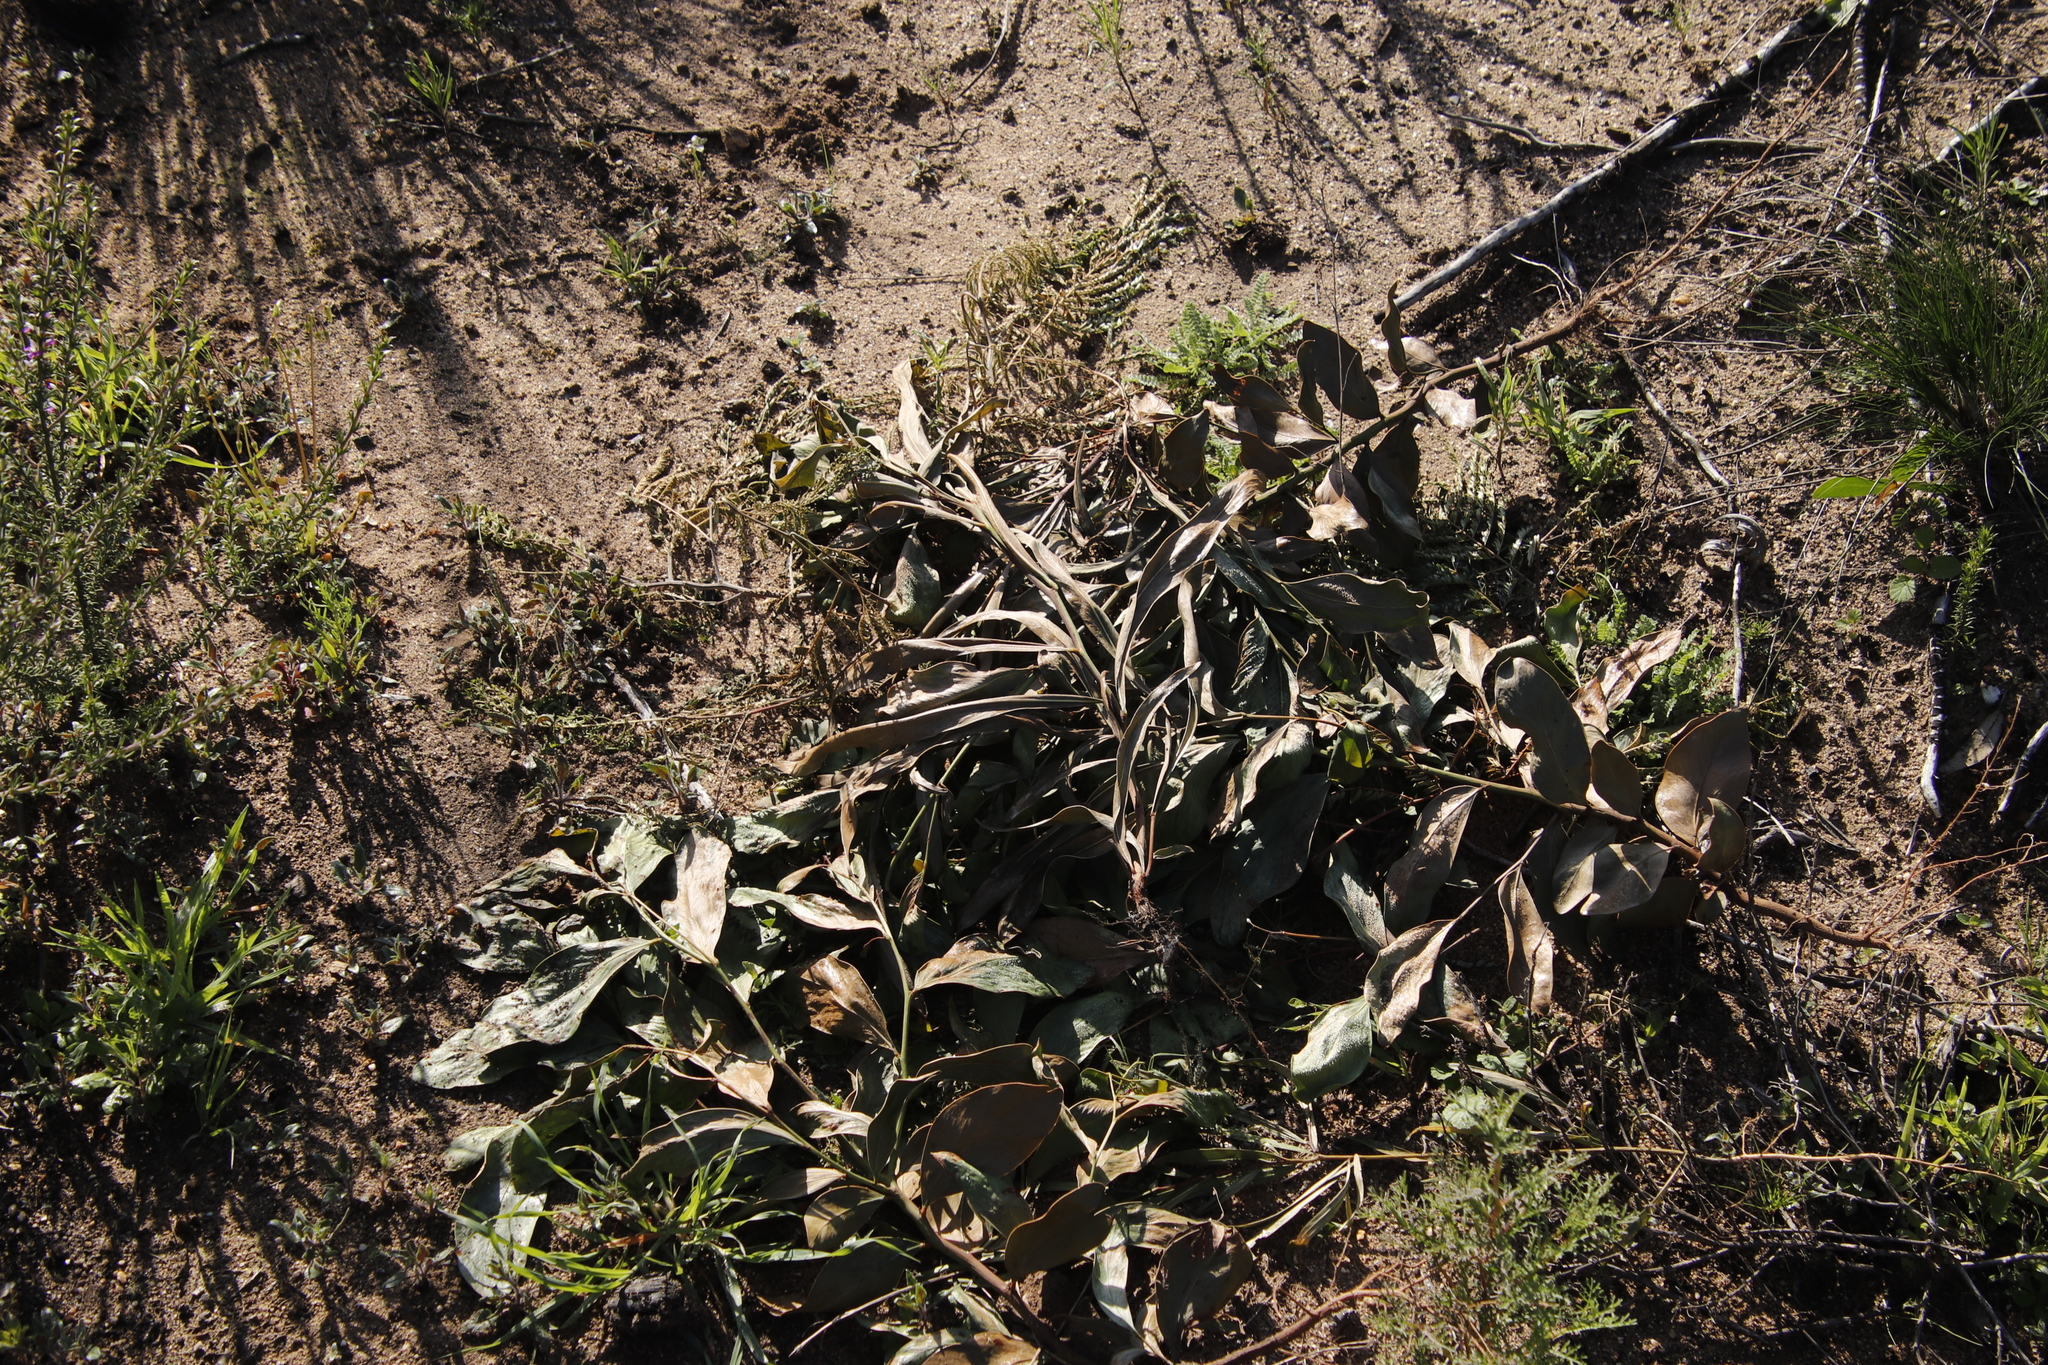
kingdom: Plantae
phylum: Tracheophyta
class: Magnoliopsida
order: Fabales
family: Fabaceae
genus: Acacia
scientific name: Acacia pycnantha
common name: Golden wattle
